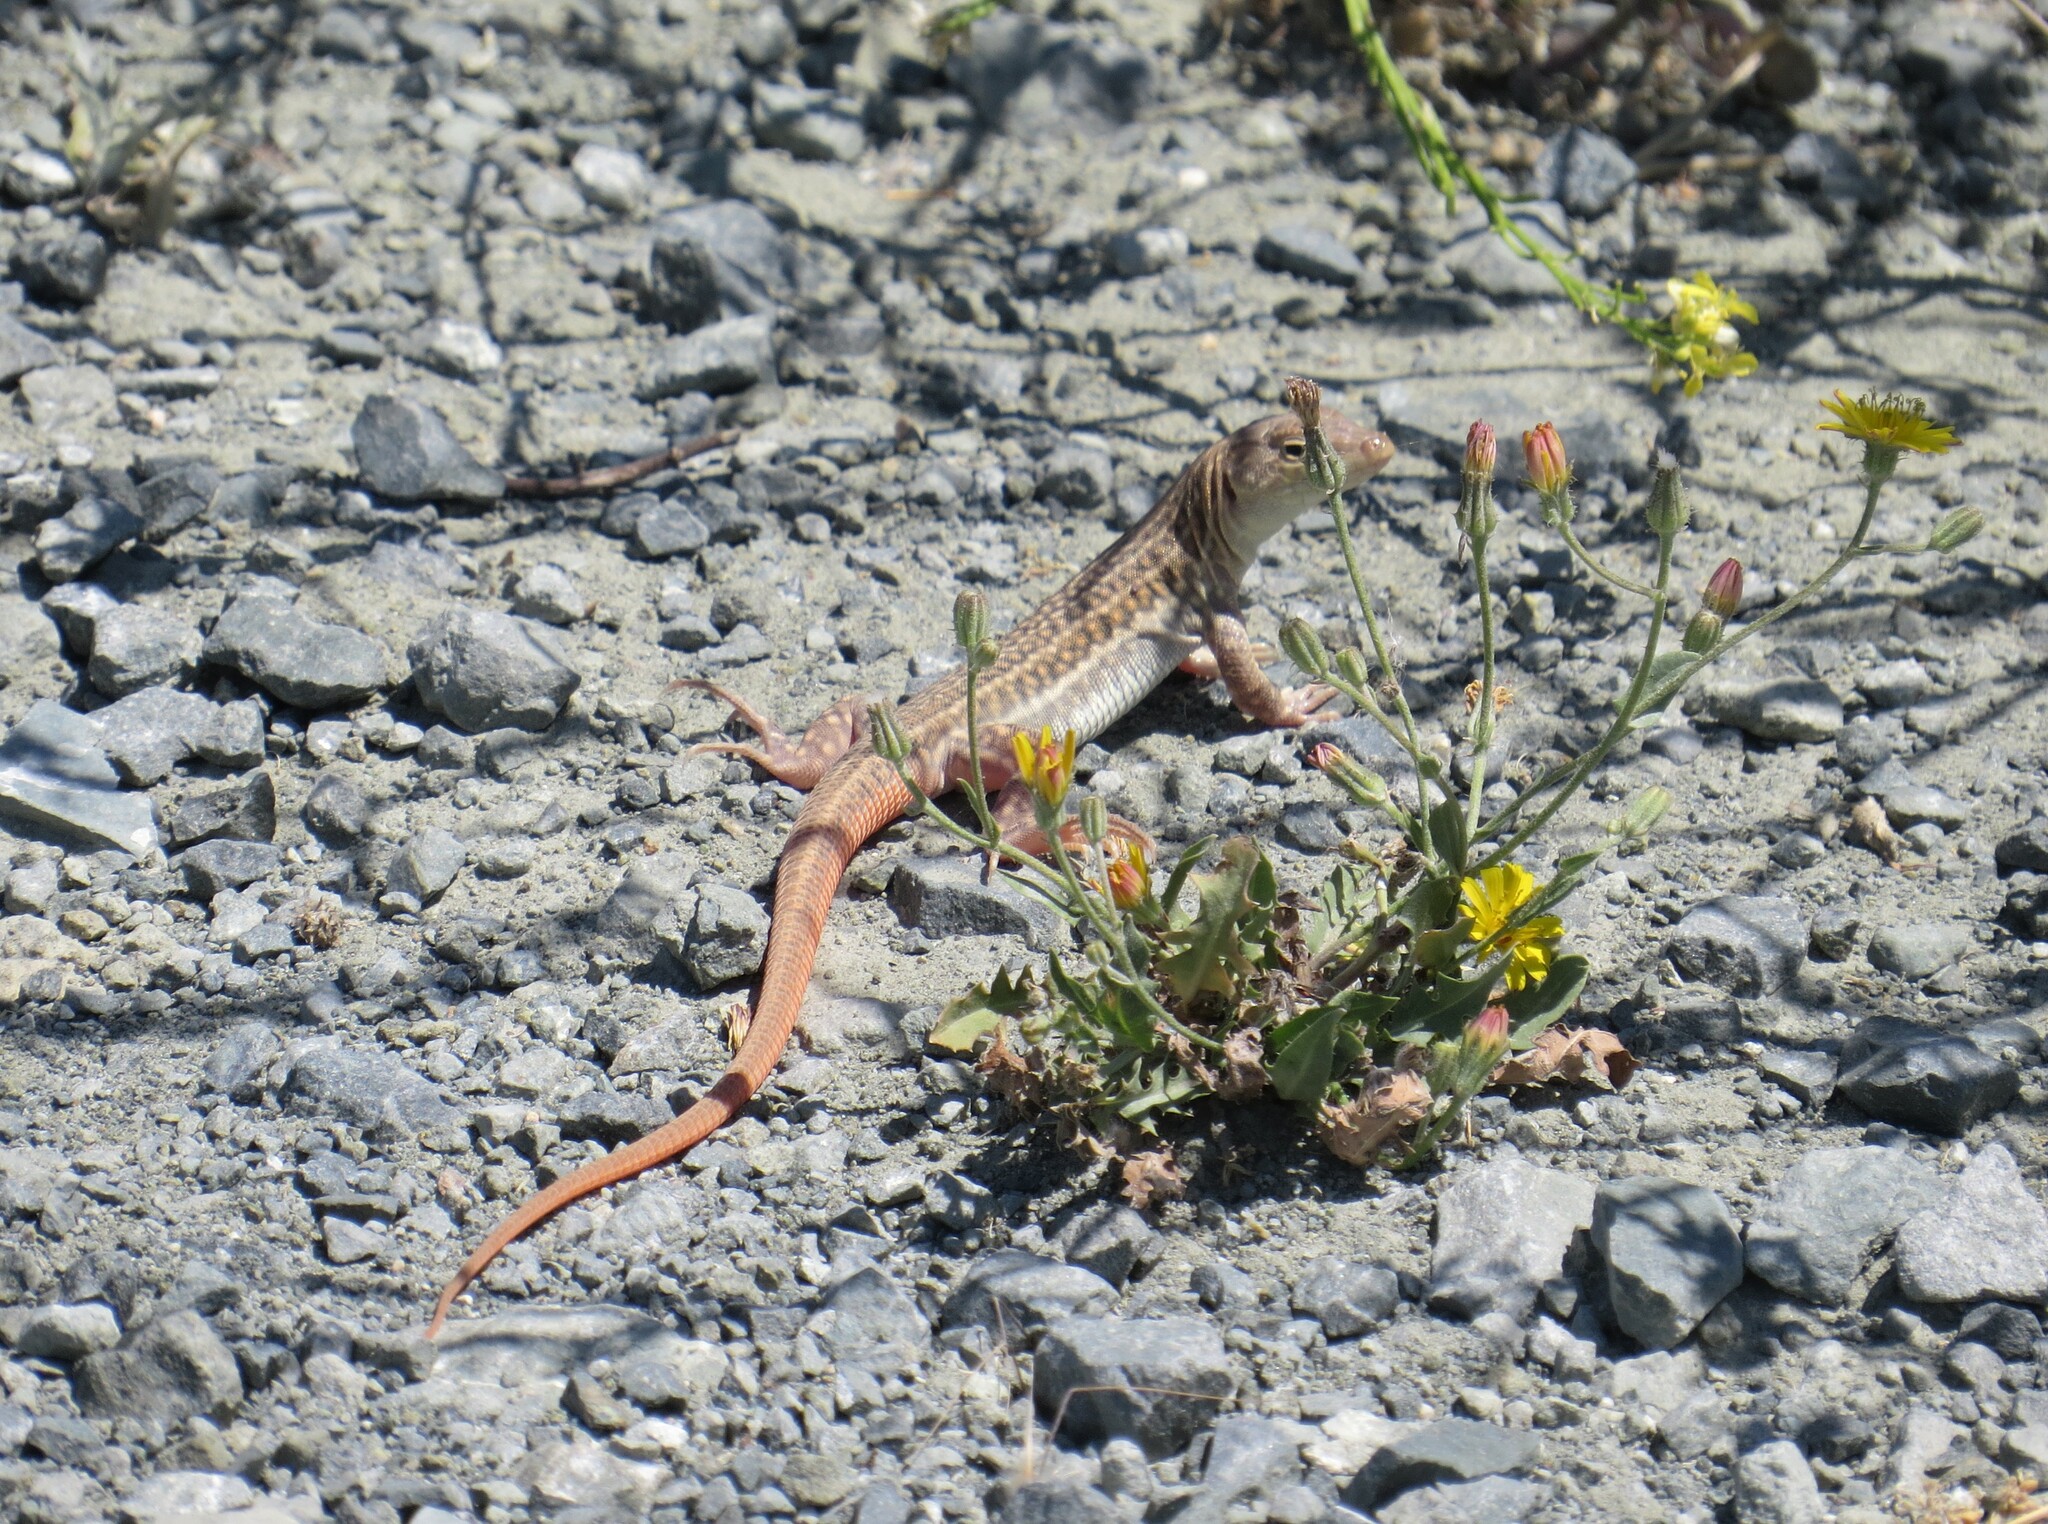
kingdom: Animalia
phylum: Chordata
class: Squamata
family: Lacertidae
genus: Acanthodactylus
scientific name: Acanthodactylus schreiberi
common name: Schreiber's fringe-fingered lizard
